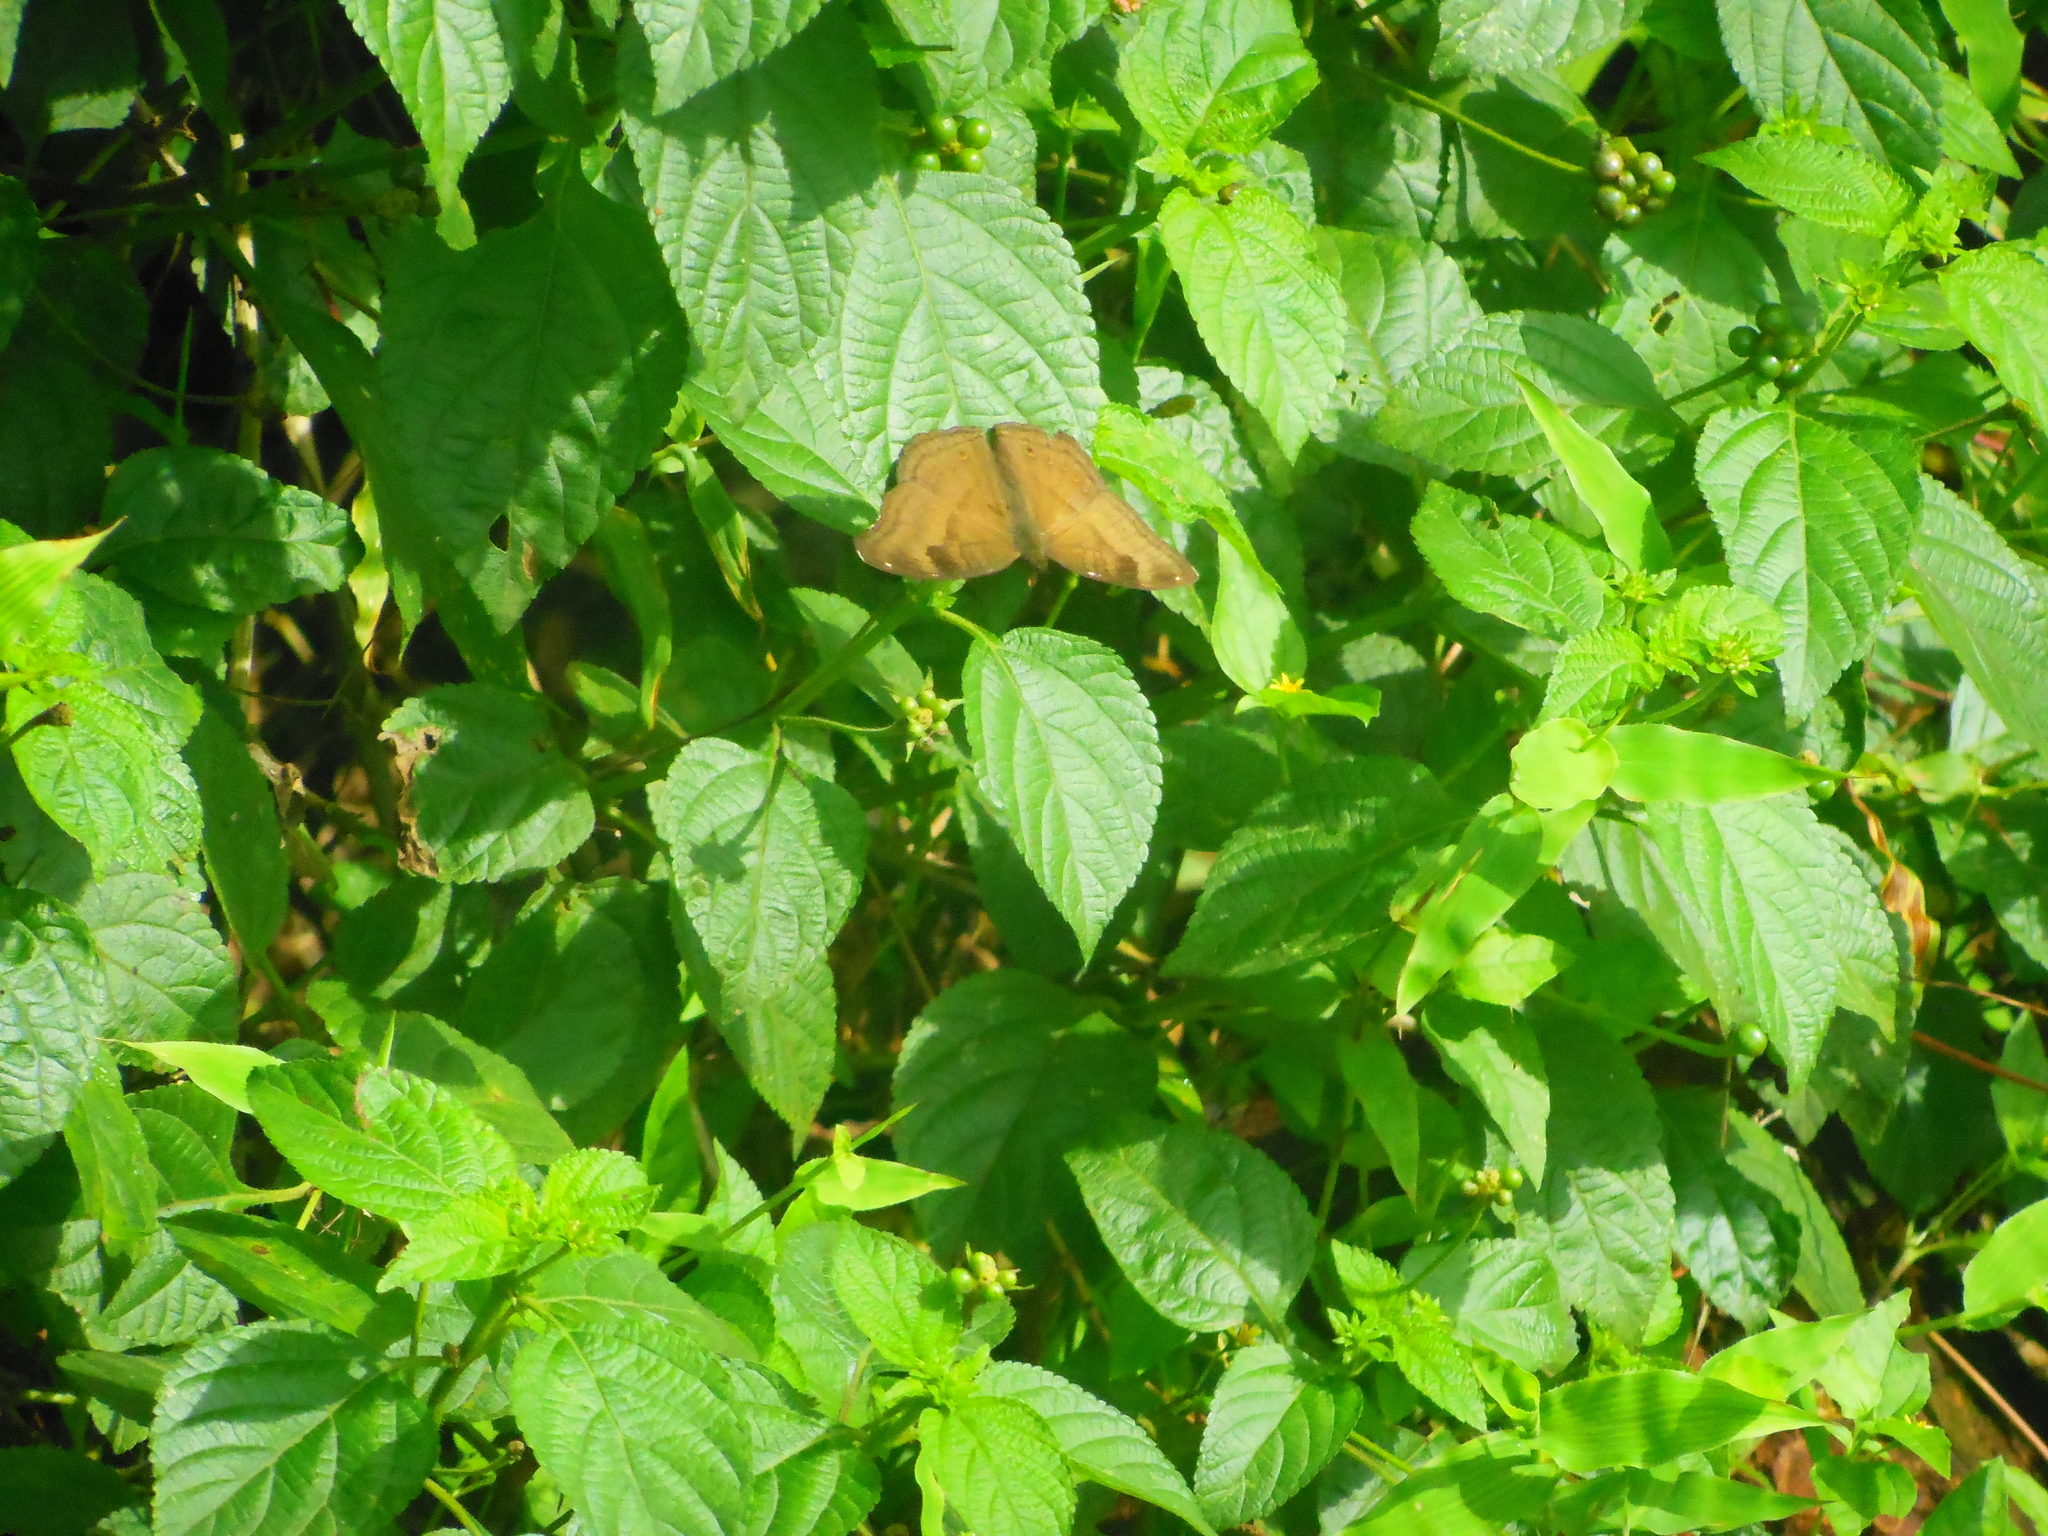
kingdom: Animalia
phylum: Arthropoda
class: Insecta
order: Lepidoptera
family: Nymphalidae
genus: Junonia
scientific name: Junonia iphita
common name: Chocolate pansy
